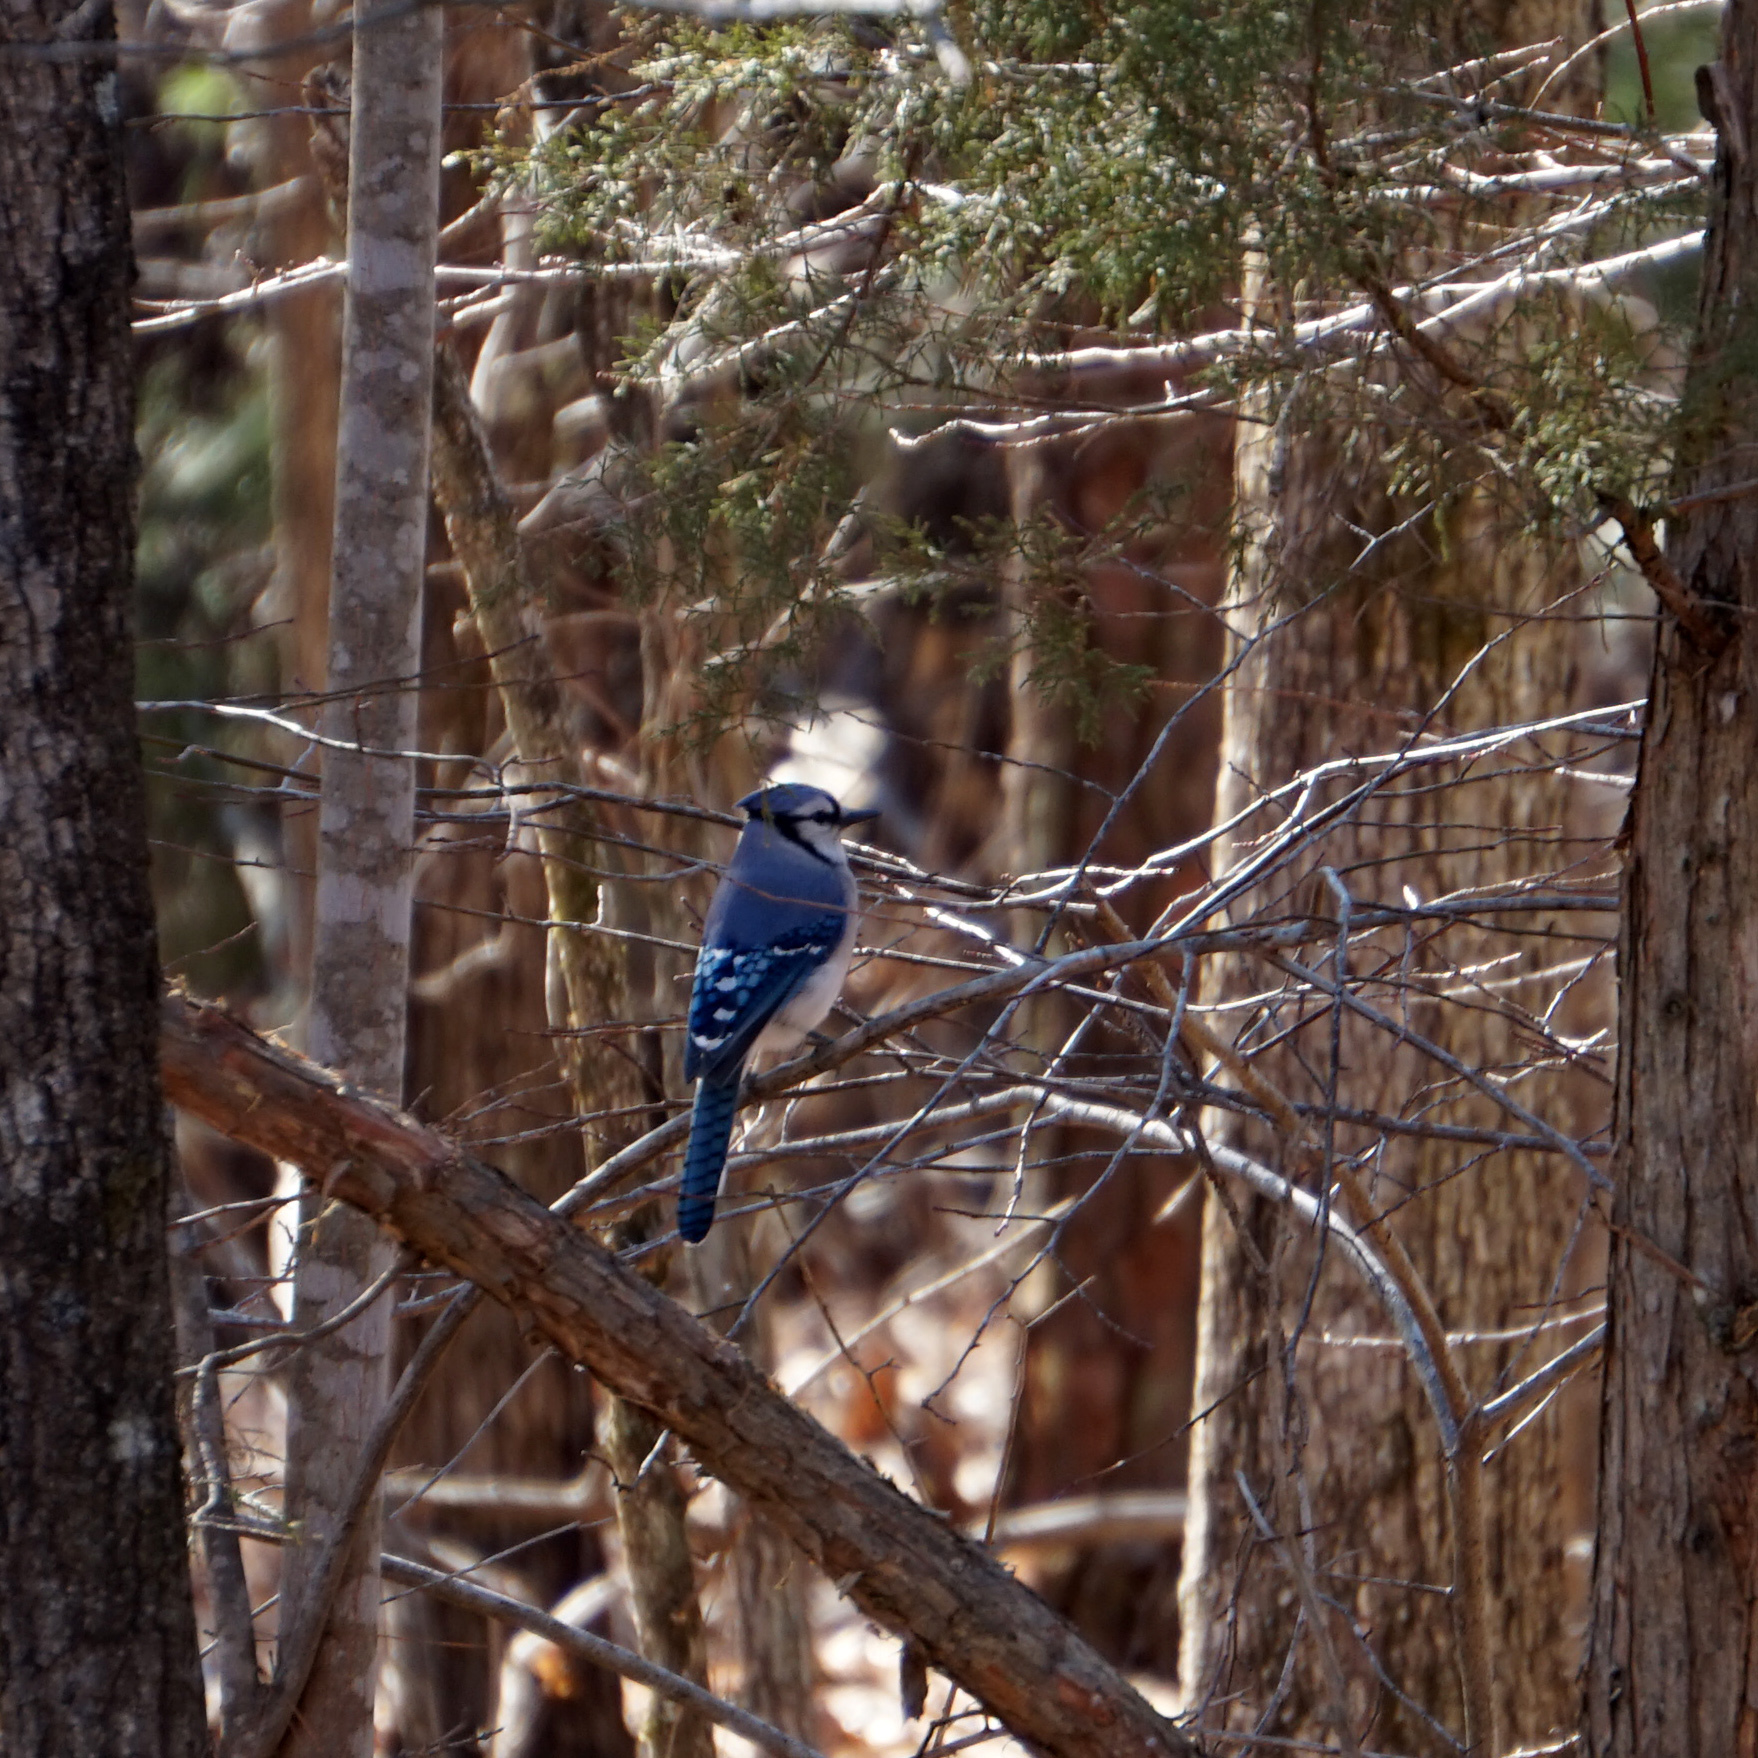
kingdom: Animalia
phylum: Chordata
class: Aves
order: Passeriformes
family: Corvidae
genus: Cyanocitta
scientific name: Cyanocitta cristata
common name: Blue jay
